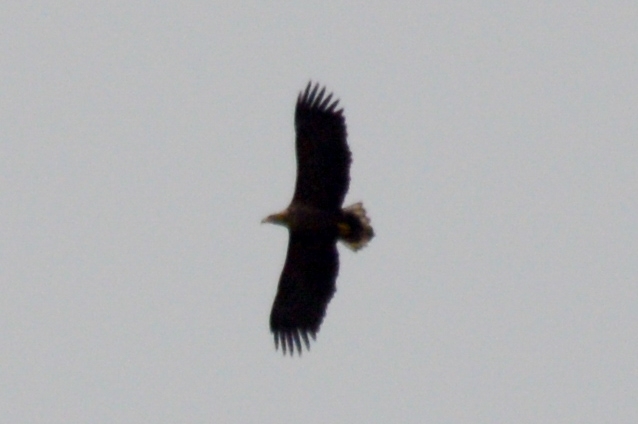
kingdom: Animalia
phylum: Chordata
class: Aves
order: Accipitriformes
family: Accipitridae
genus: Haliaeetus
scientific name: Haliaeetus albicilla
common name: White-tailed eagle
